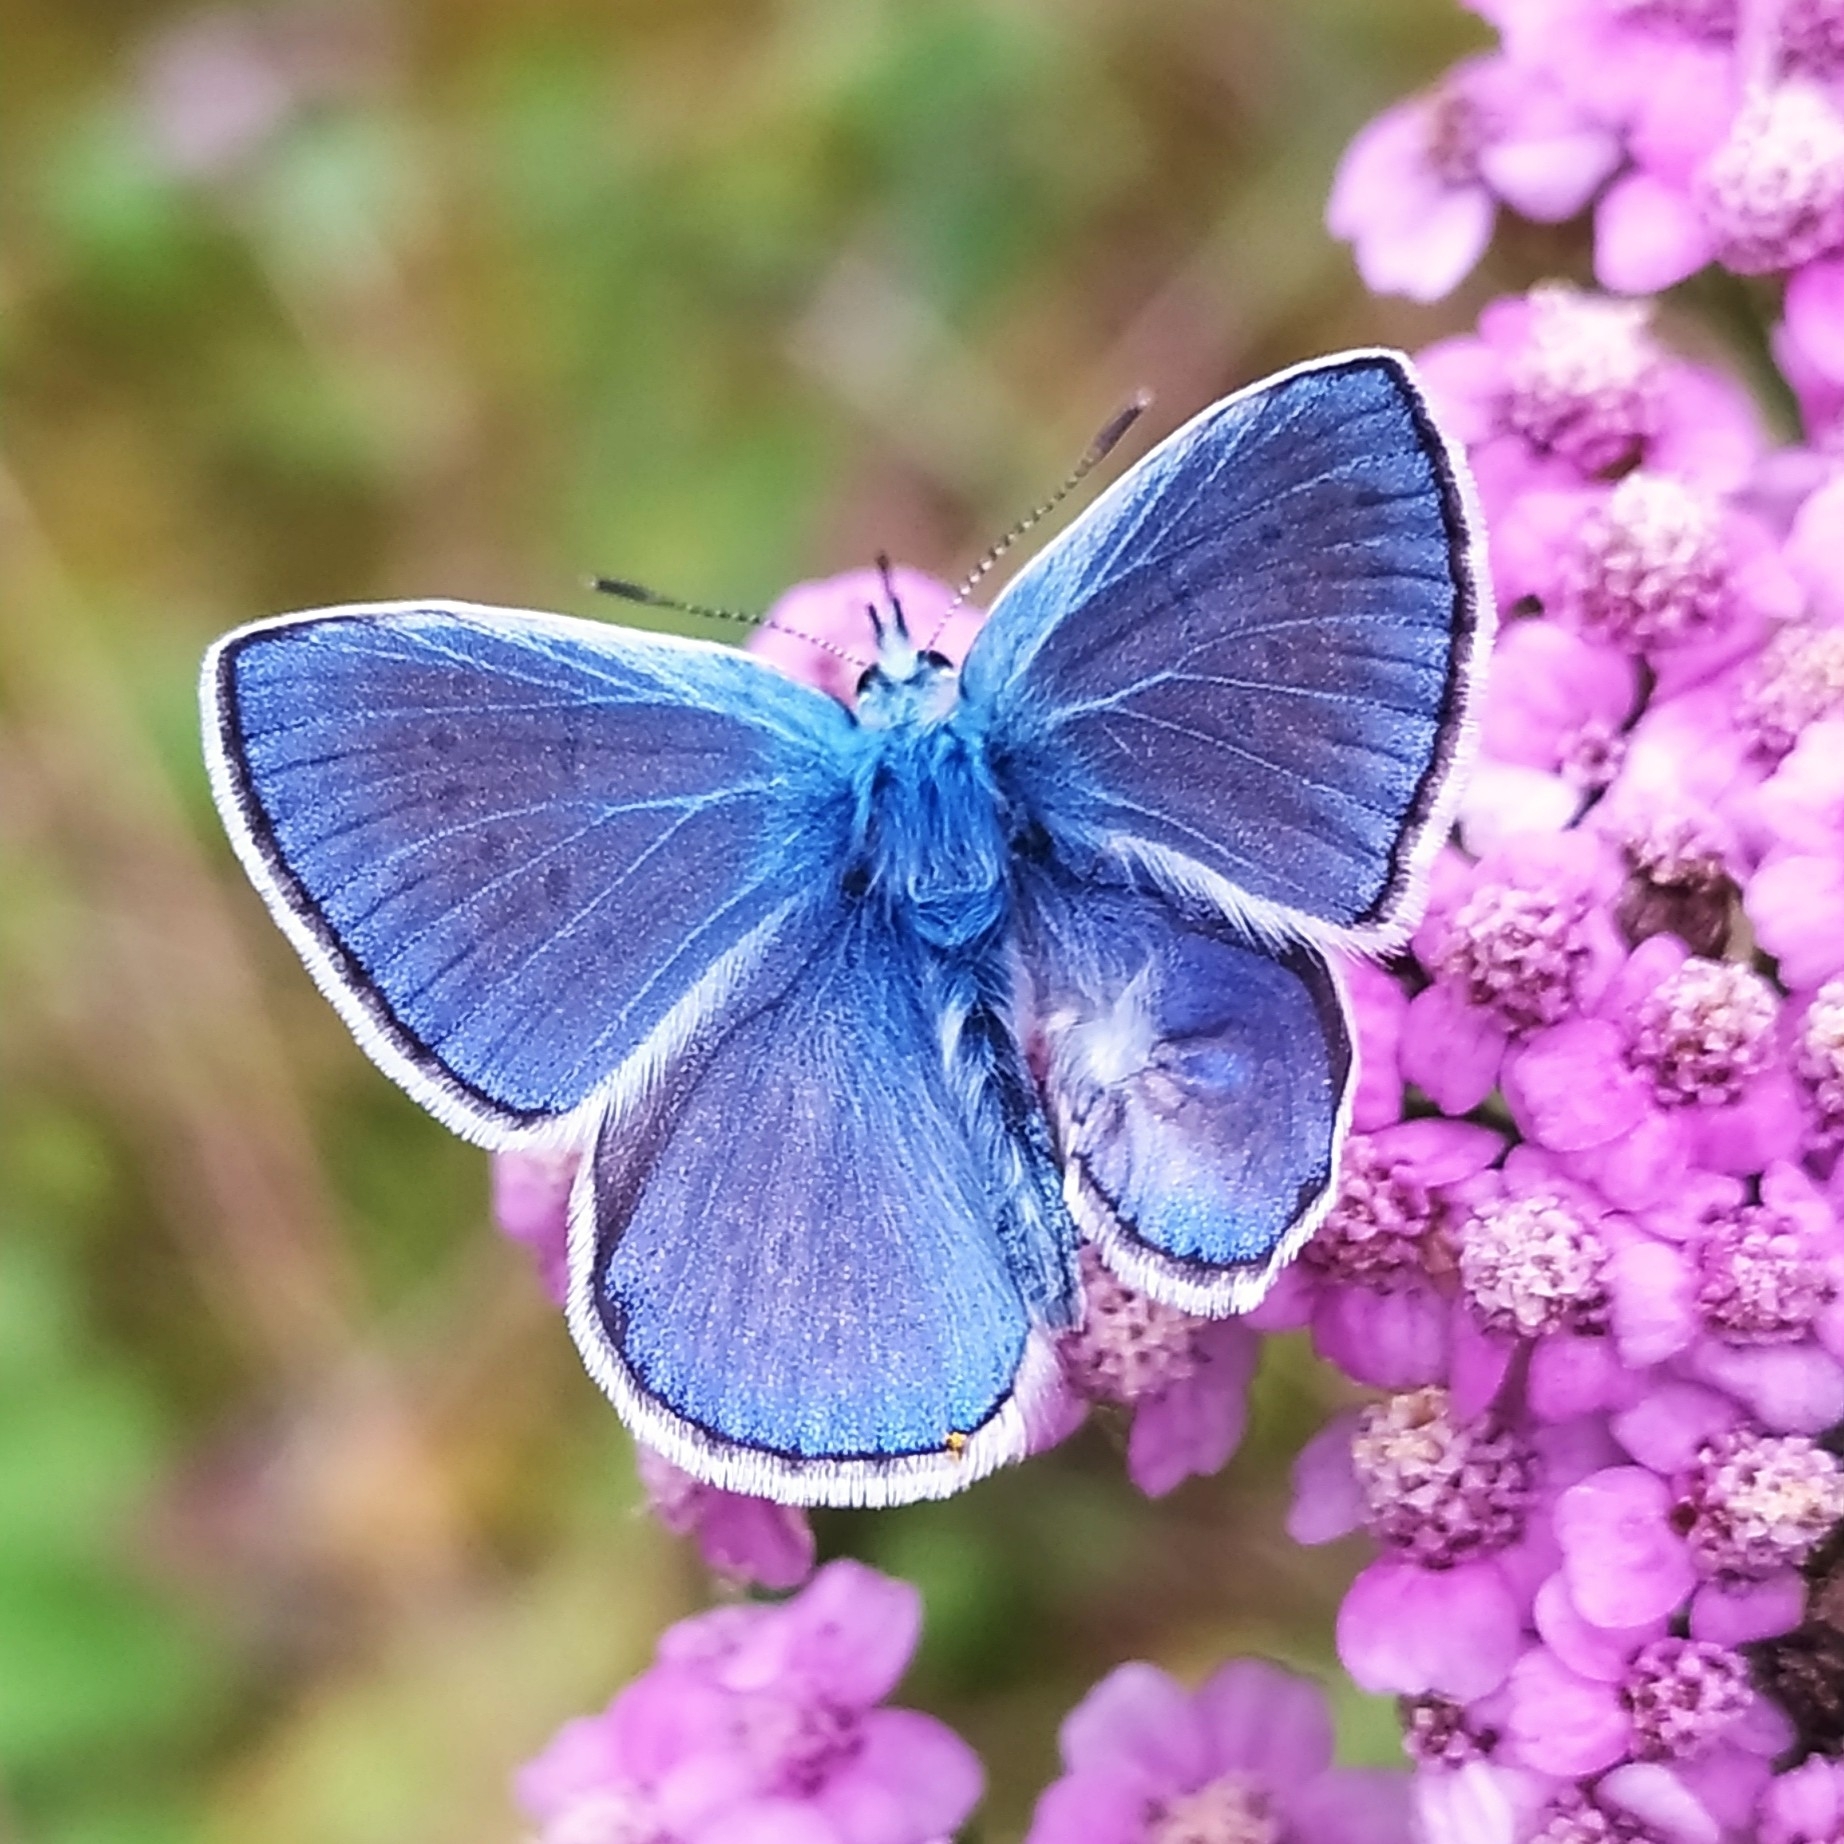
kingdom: Animalia
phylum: Arthropoda
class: Insecta
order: Lepidoptera
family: Lycaenidae
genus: Polyommatus
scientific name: Polyommatus icarus
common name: Common blue
